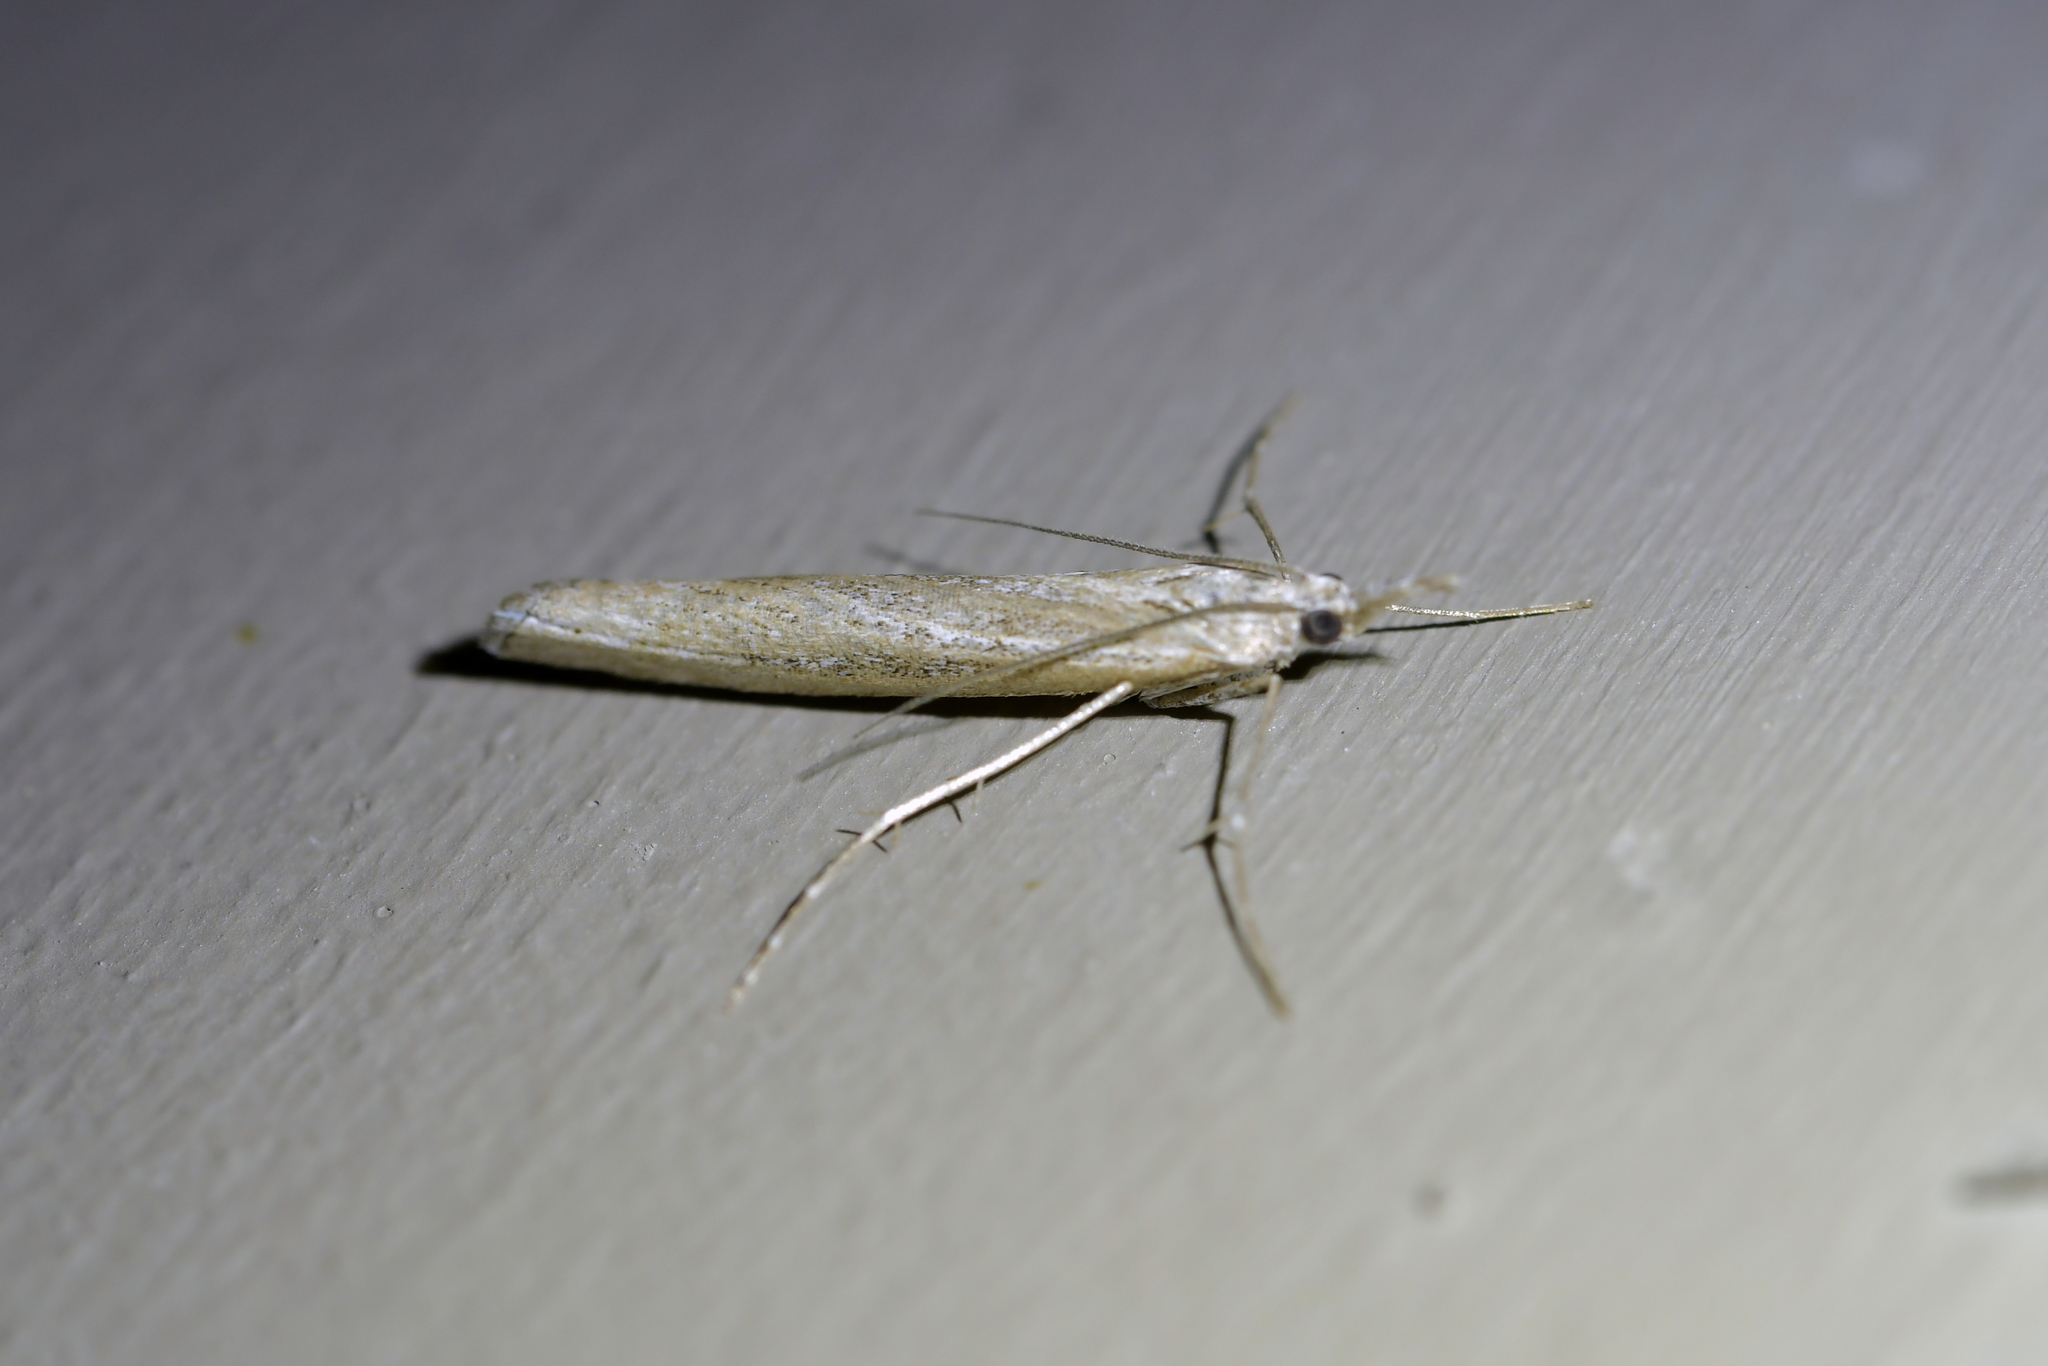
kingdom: Animalia
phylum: Arthropoda
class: Insecta
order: Lepidoptera
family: Crambidae
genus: Orocrambus
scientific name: Orocrambus cyclopicus
